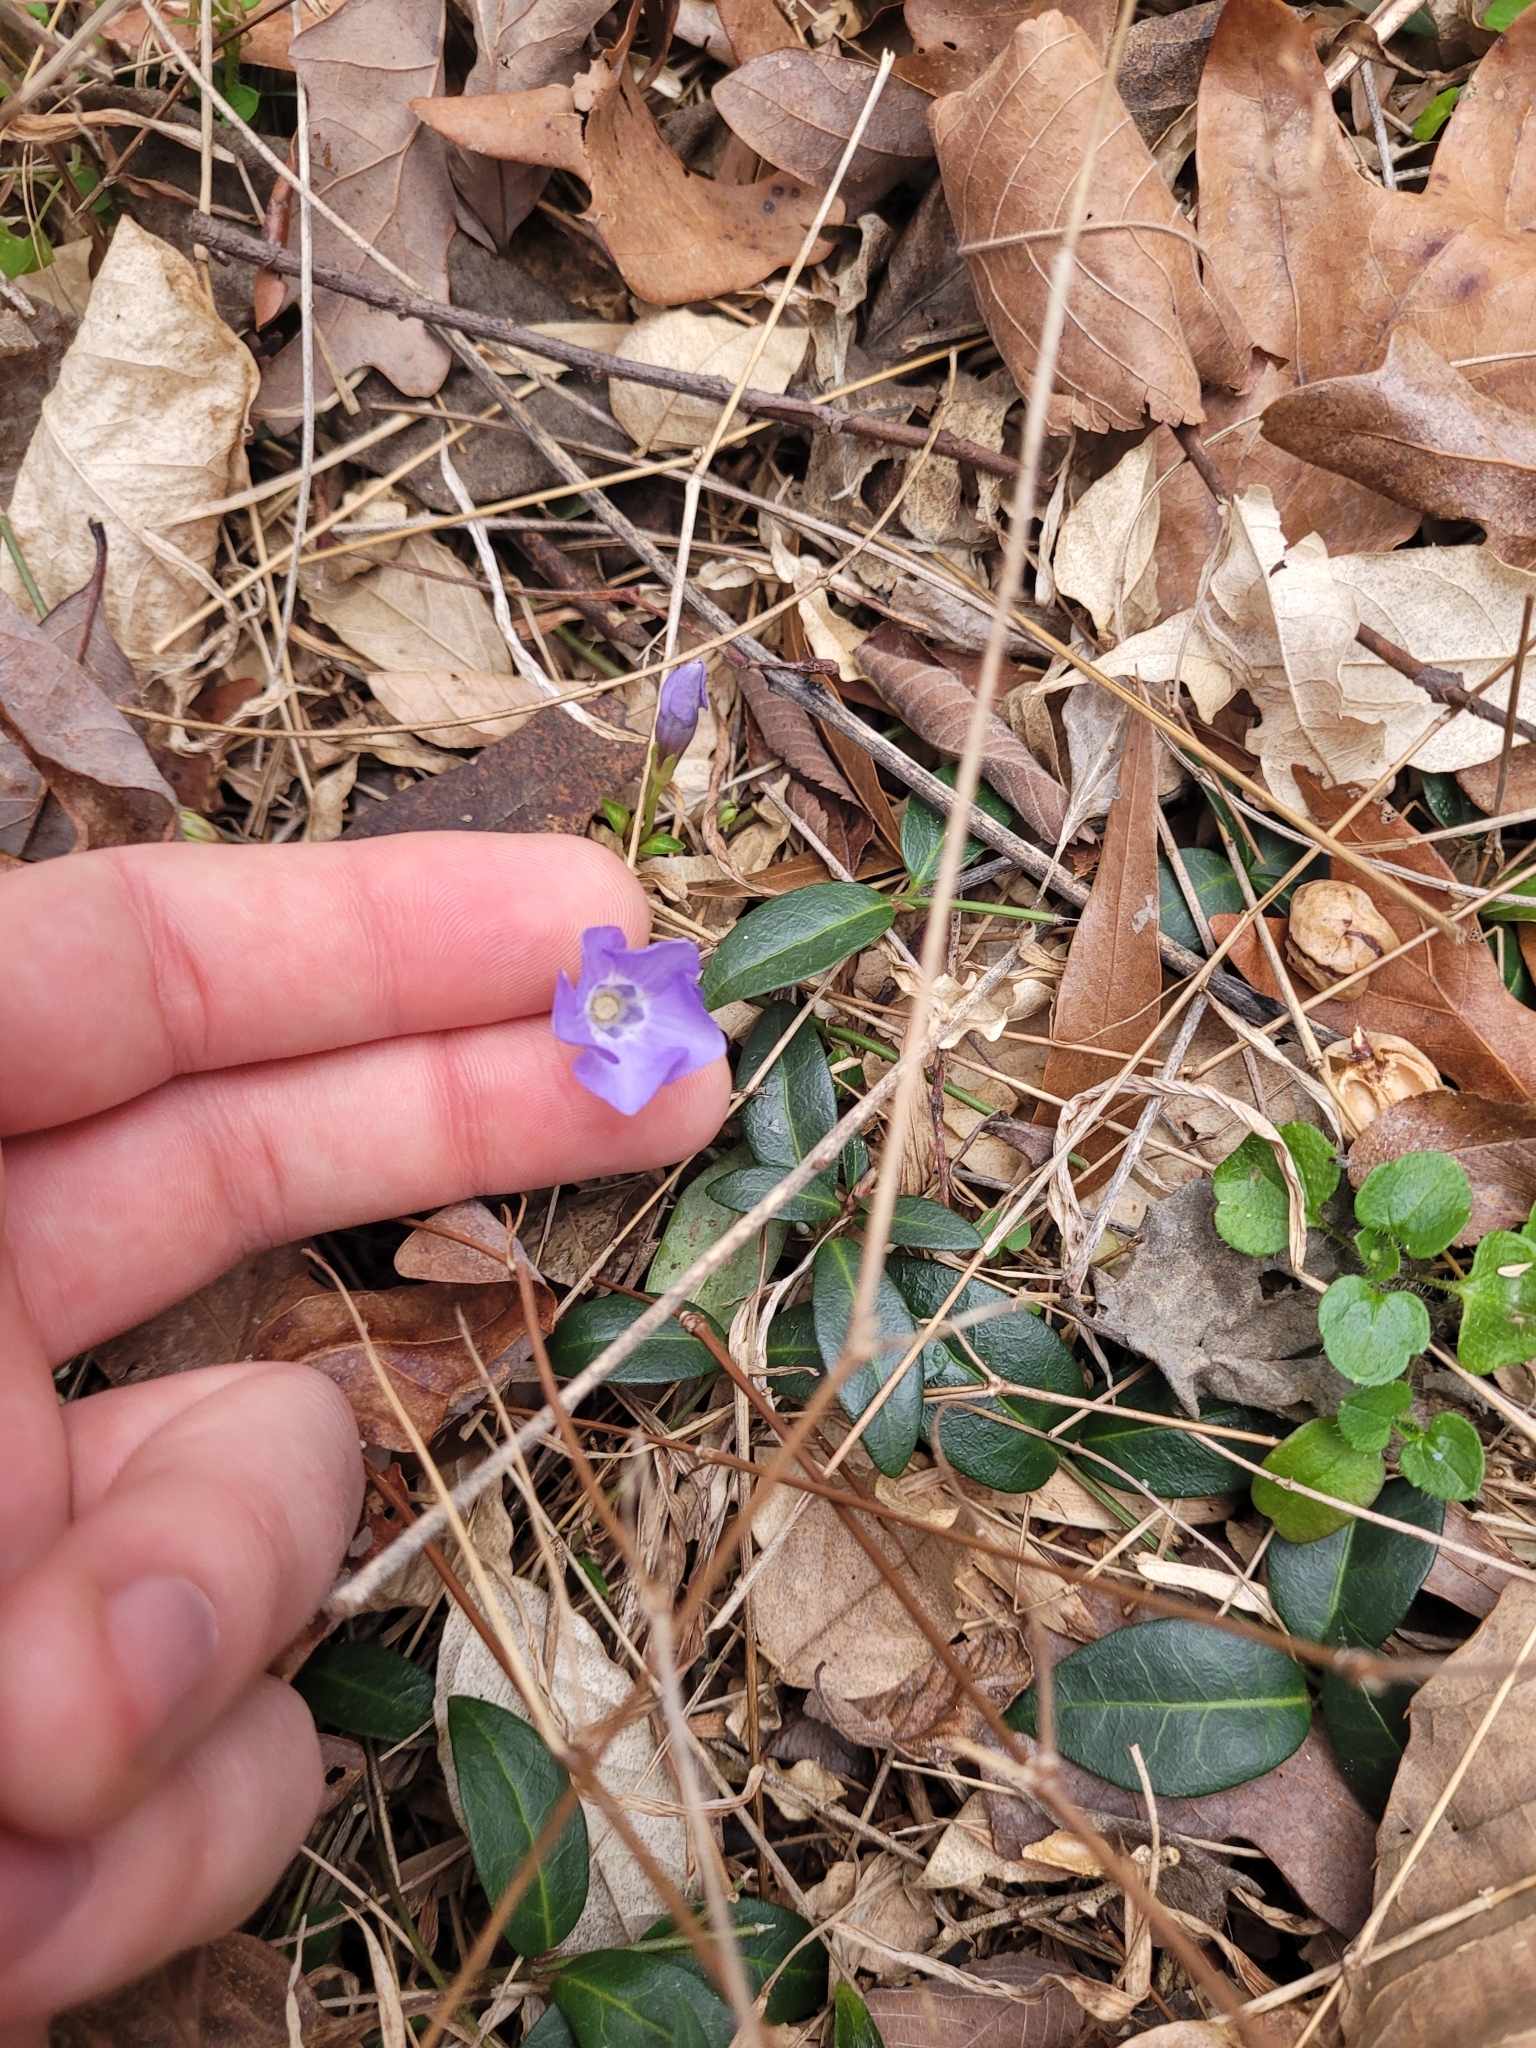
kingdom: Plantae
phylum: Tracheophyta
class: Magnoliopsida
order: Gentianales
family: Apocynaceae
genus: Vinca
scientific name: Vinca minor
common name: Lesser periwinkle
